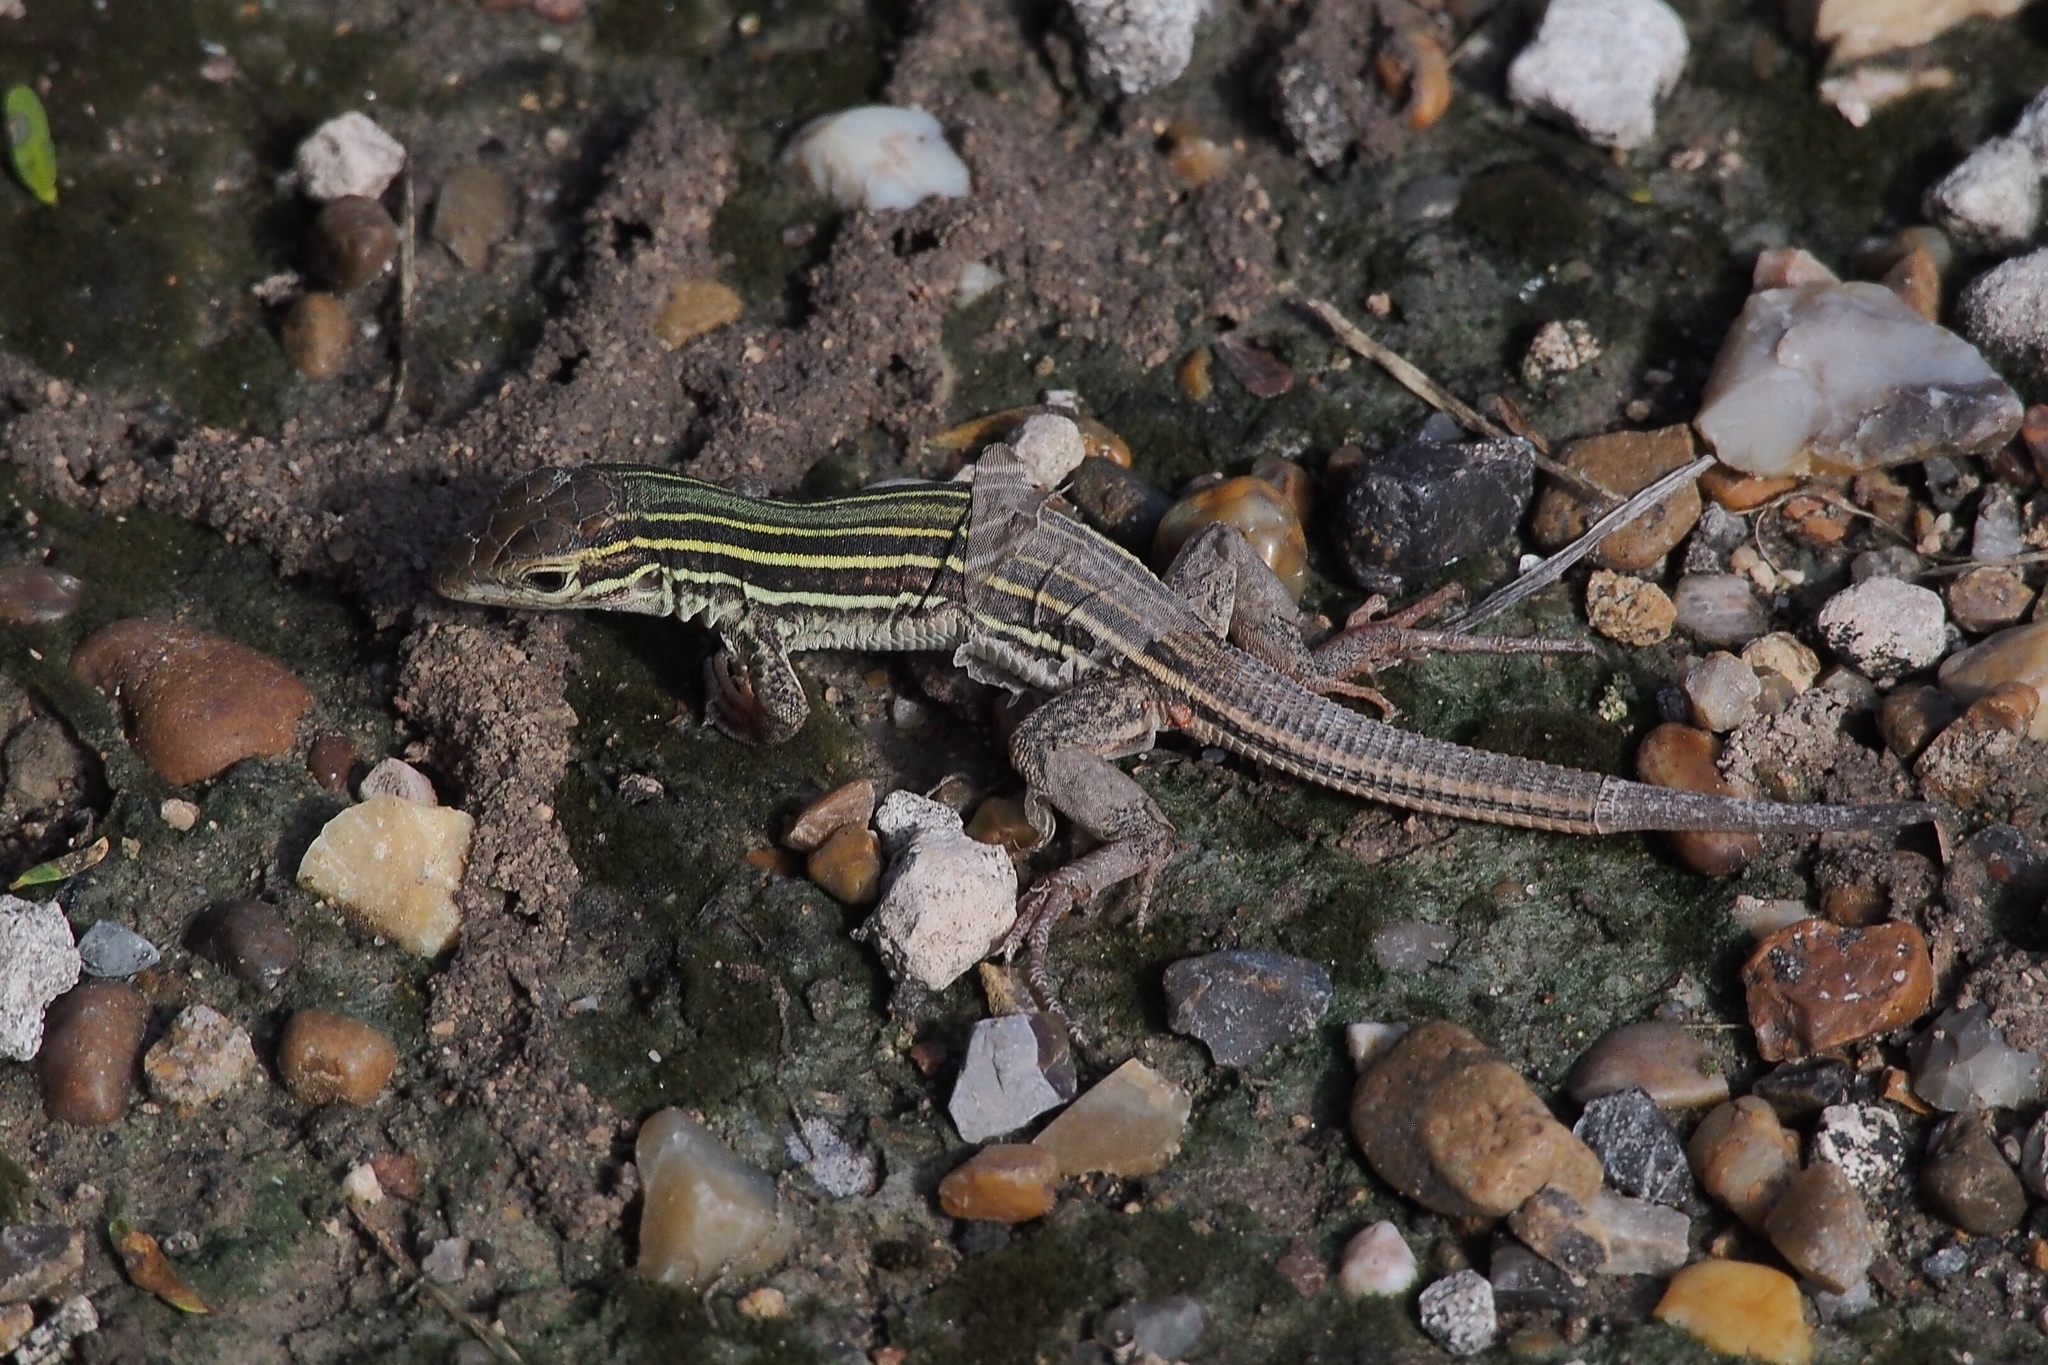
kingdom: Animalia
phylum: Chordata
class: Squamata
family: Teiidae
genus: Aspidoscelis
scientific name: Aspidoscelis gularis
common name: Eastern spotted whiptail
